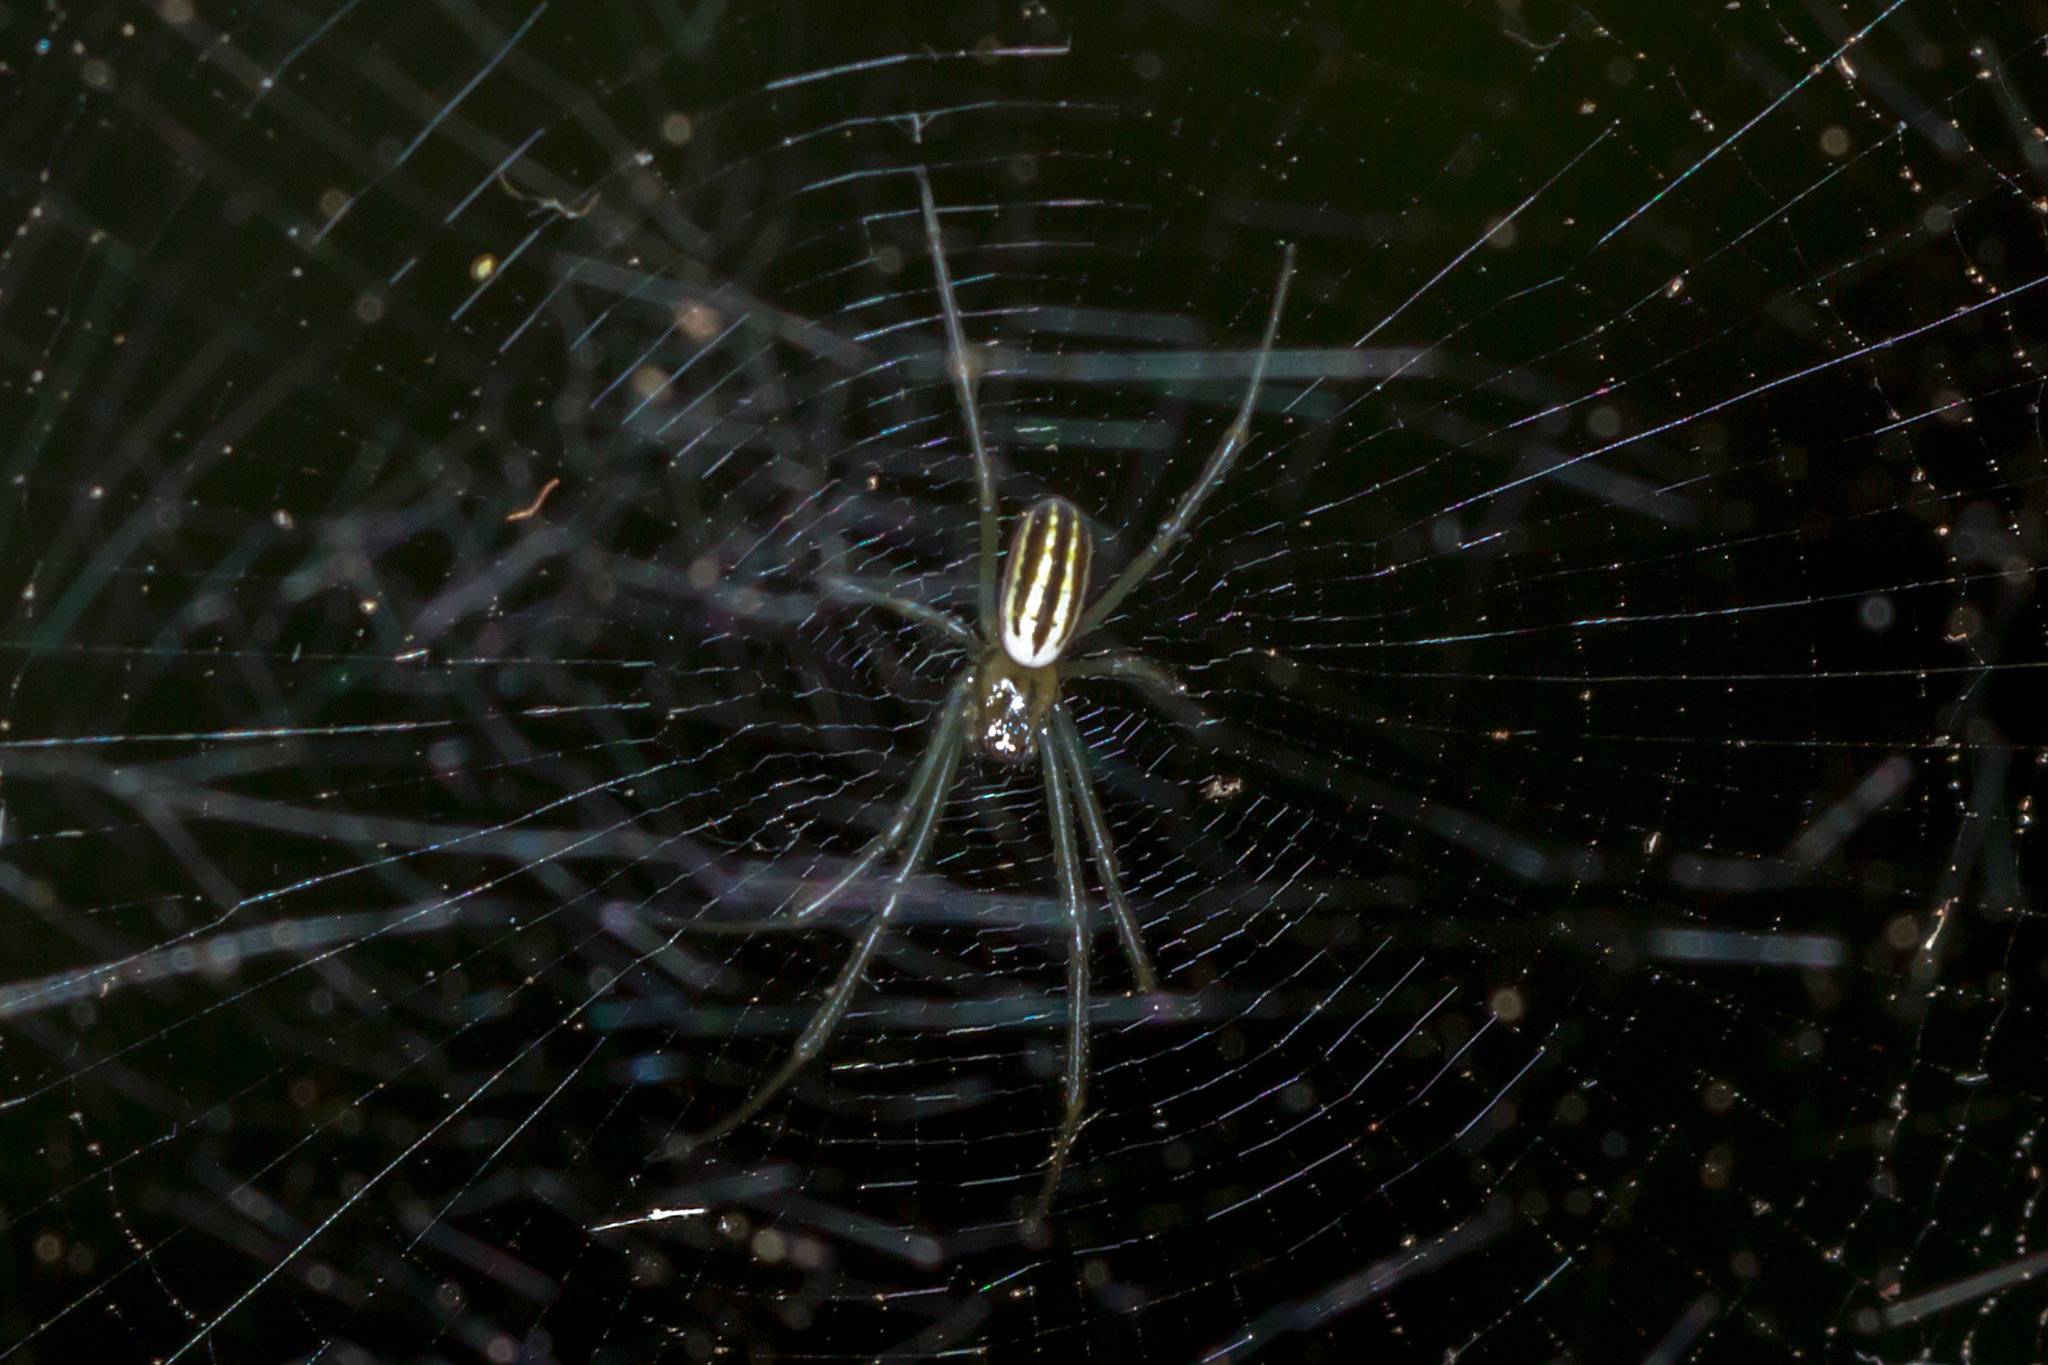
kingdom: Animalia
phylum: Arthropoda
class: Arachnida
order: Araneae
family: Araneidae
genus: Nephila
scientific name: Nephila pilipes
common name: Giant golden orb weaver
